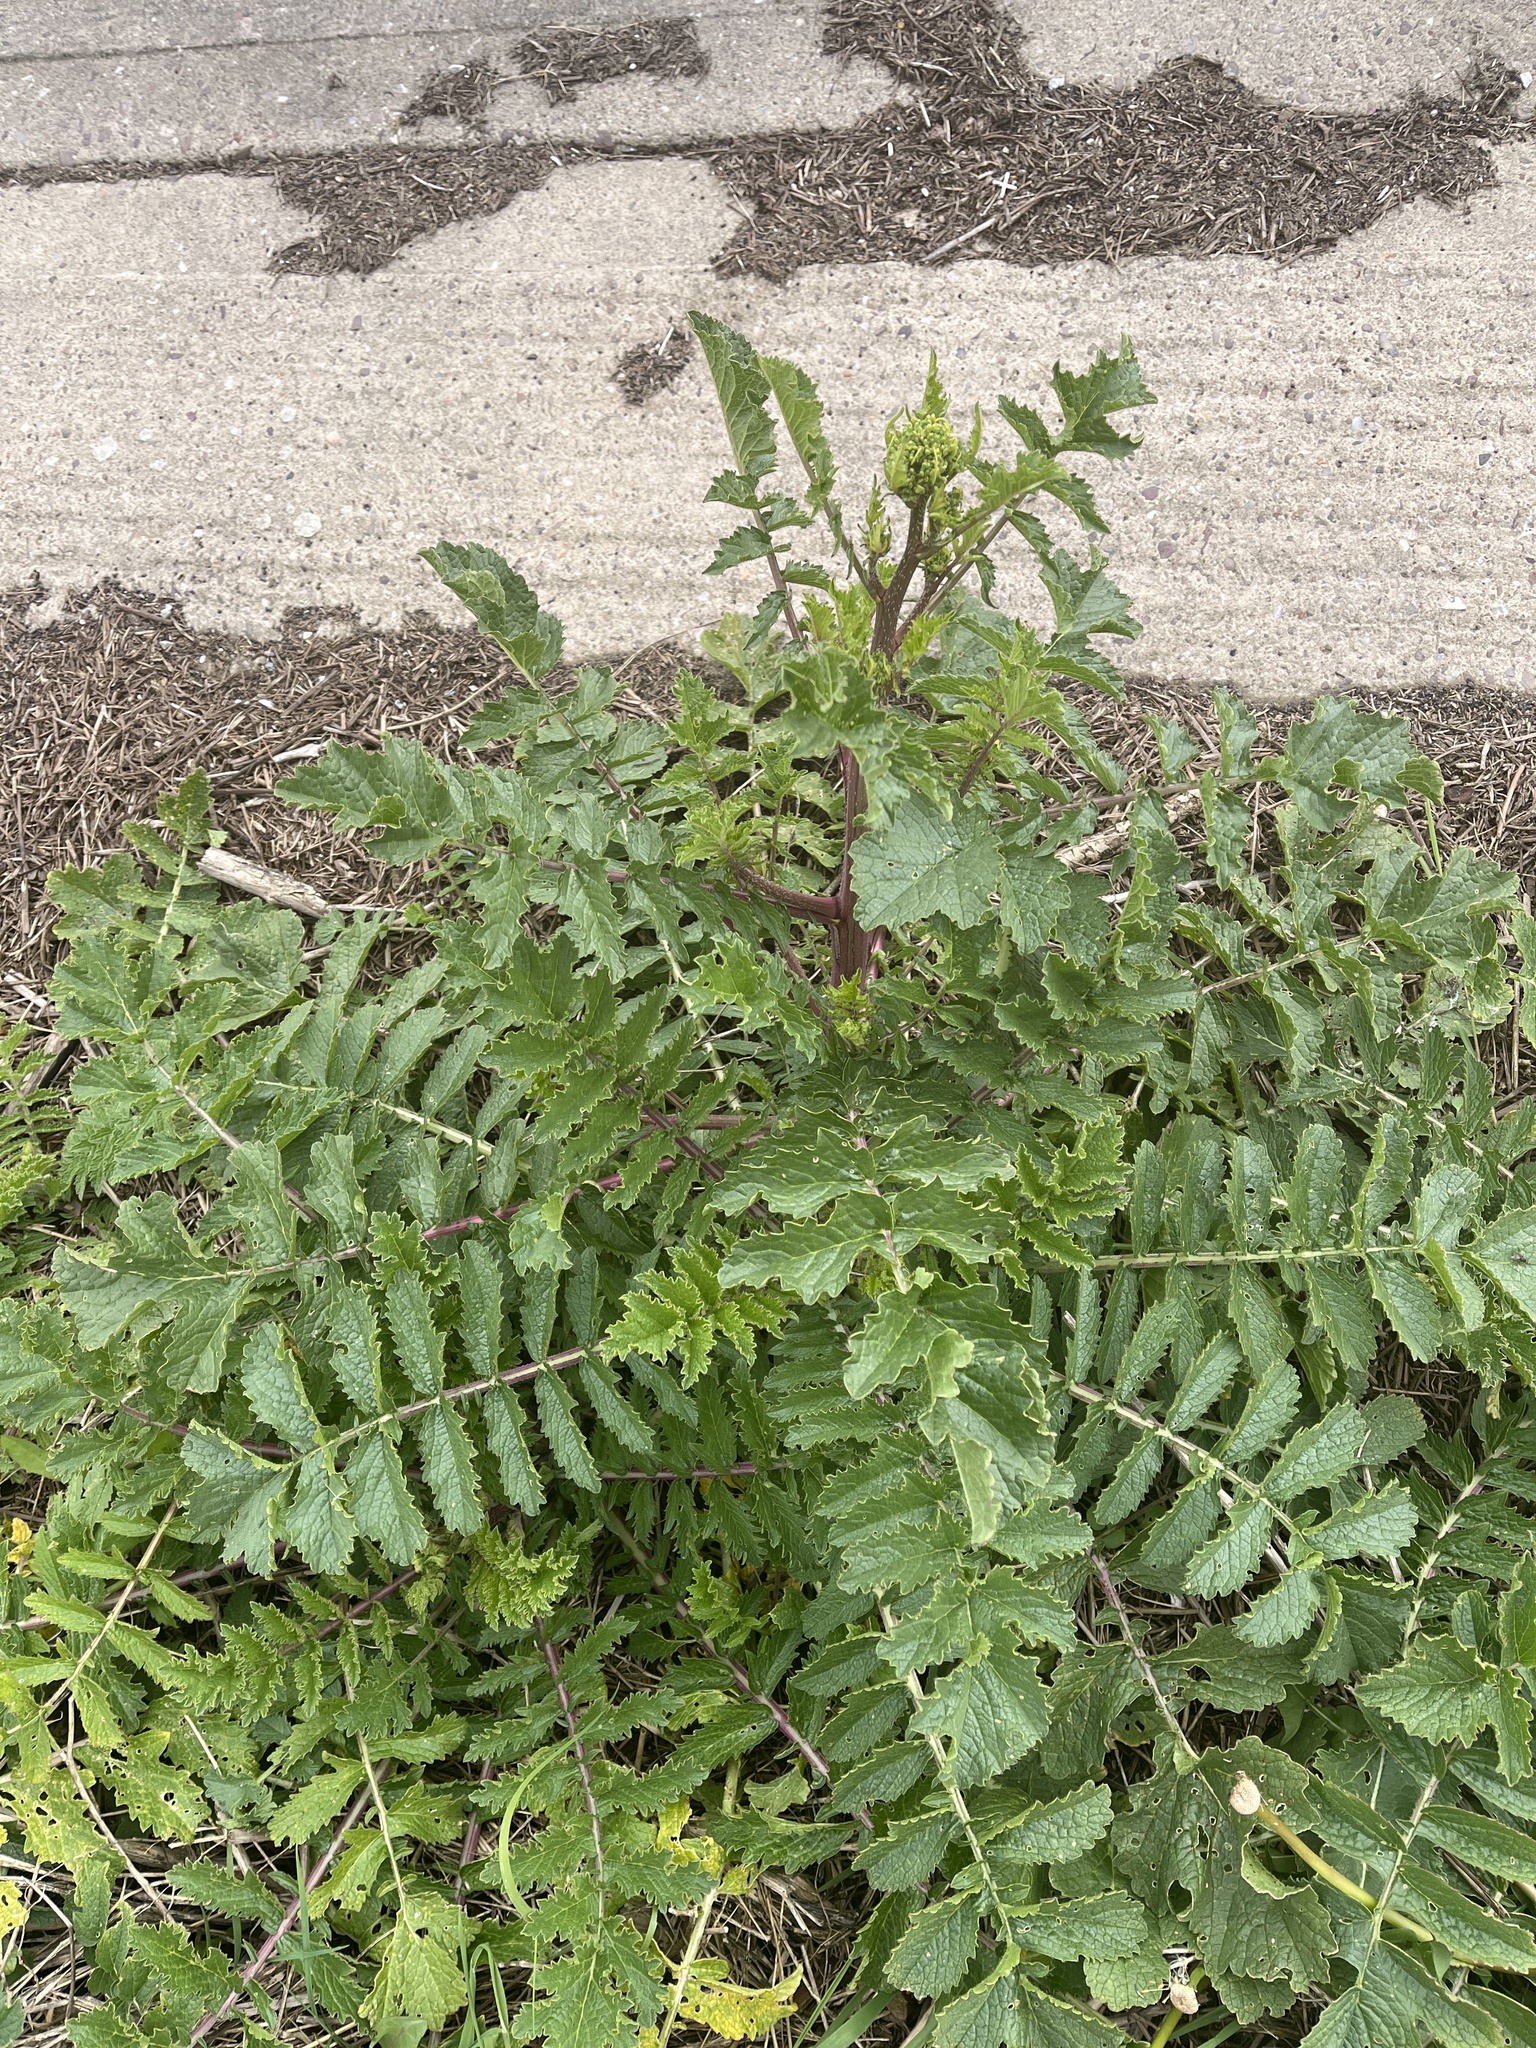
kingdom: Plantae
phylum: Tracheophyta
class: Magnoliopsida
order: Brassicales
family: Brassicaceae
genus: Raphanus
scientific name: Raphanus raphanistrum
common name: Wild radish
